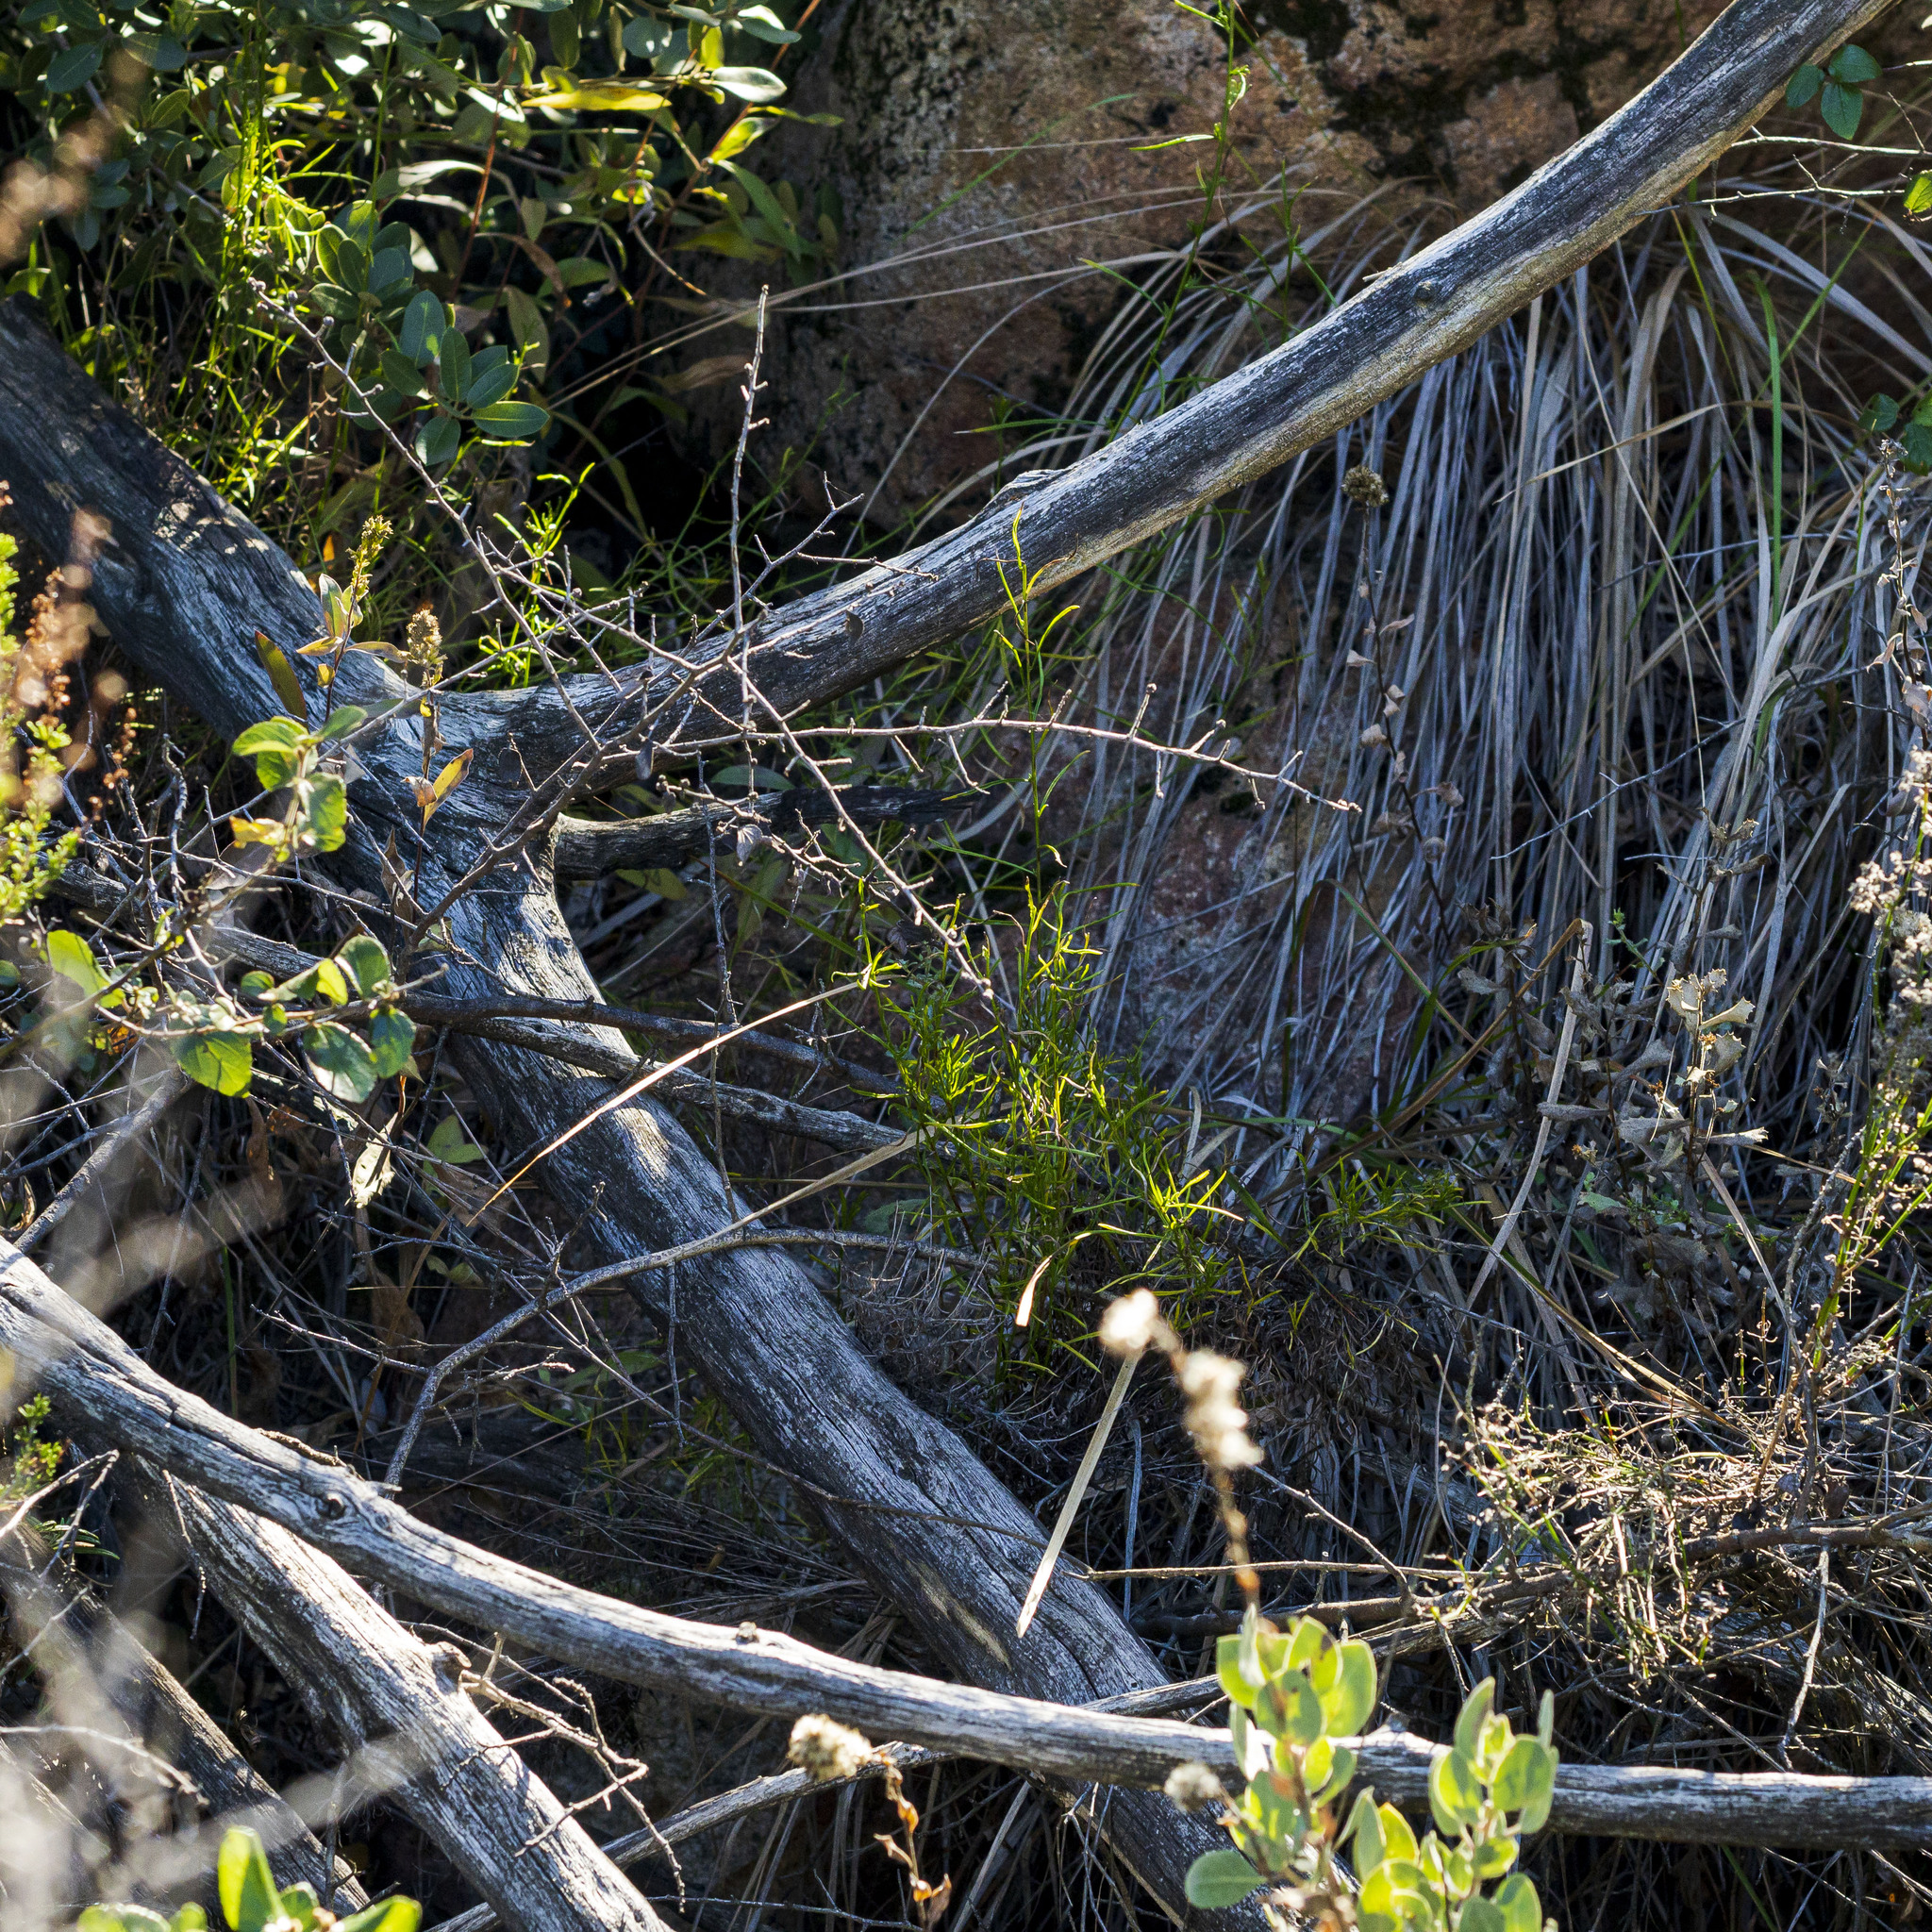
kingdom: Plantae
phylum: Tracheophyta
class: Magnoliopsida
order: Asterales
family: Asteraceae
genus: Baccharis
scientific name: Baccharis vanessae
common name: Encinitas baccharis
